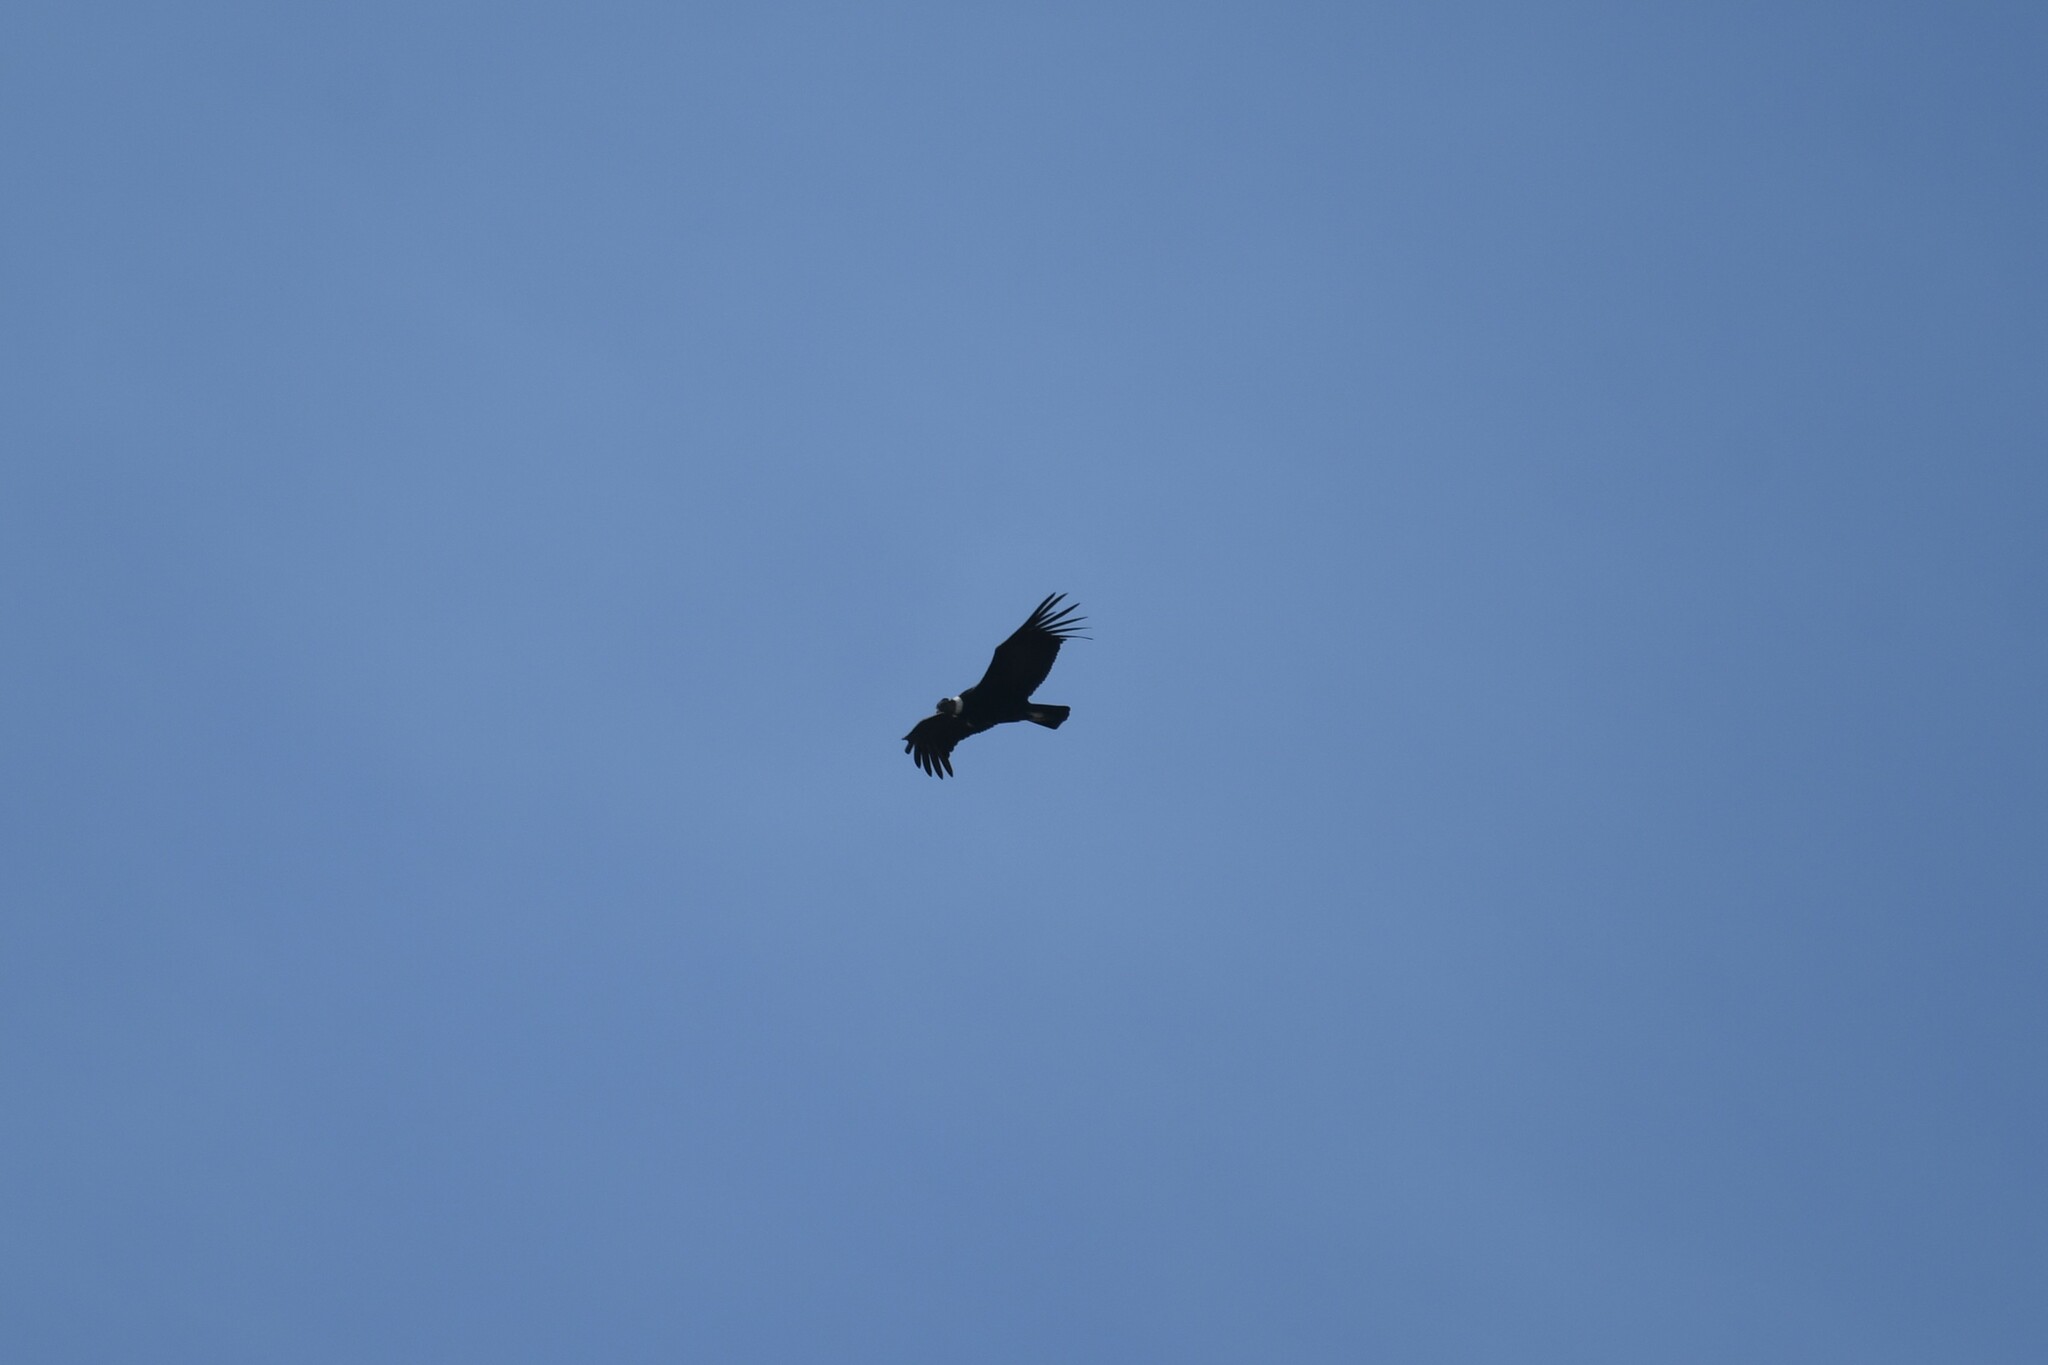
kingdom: Animalia
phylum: Chordata
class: Aves
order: Accipitriformes
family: Cathartidae
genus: Vultur
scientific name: Vultur gryphus
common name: Andean condor
